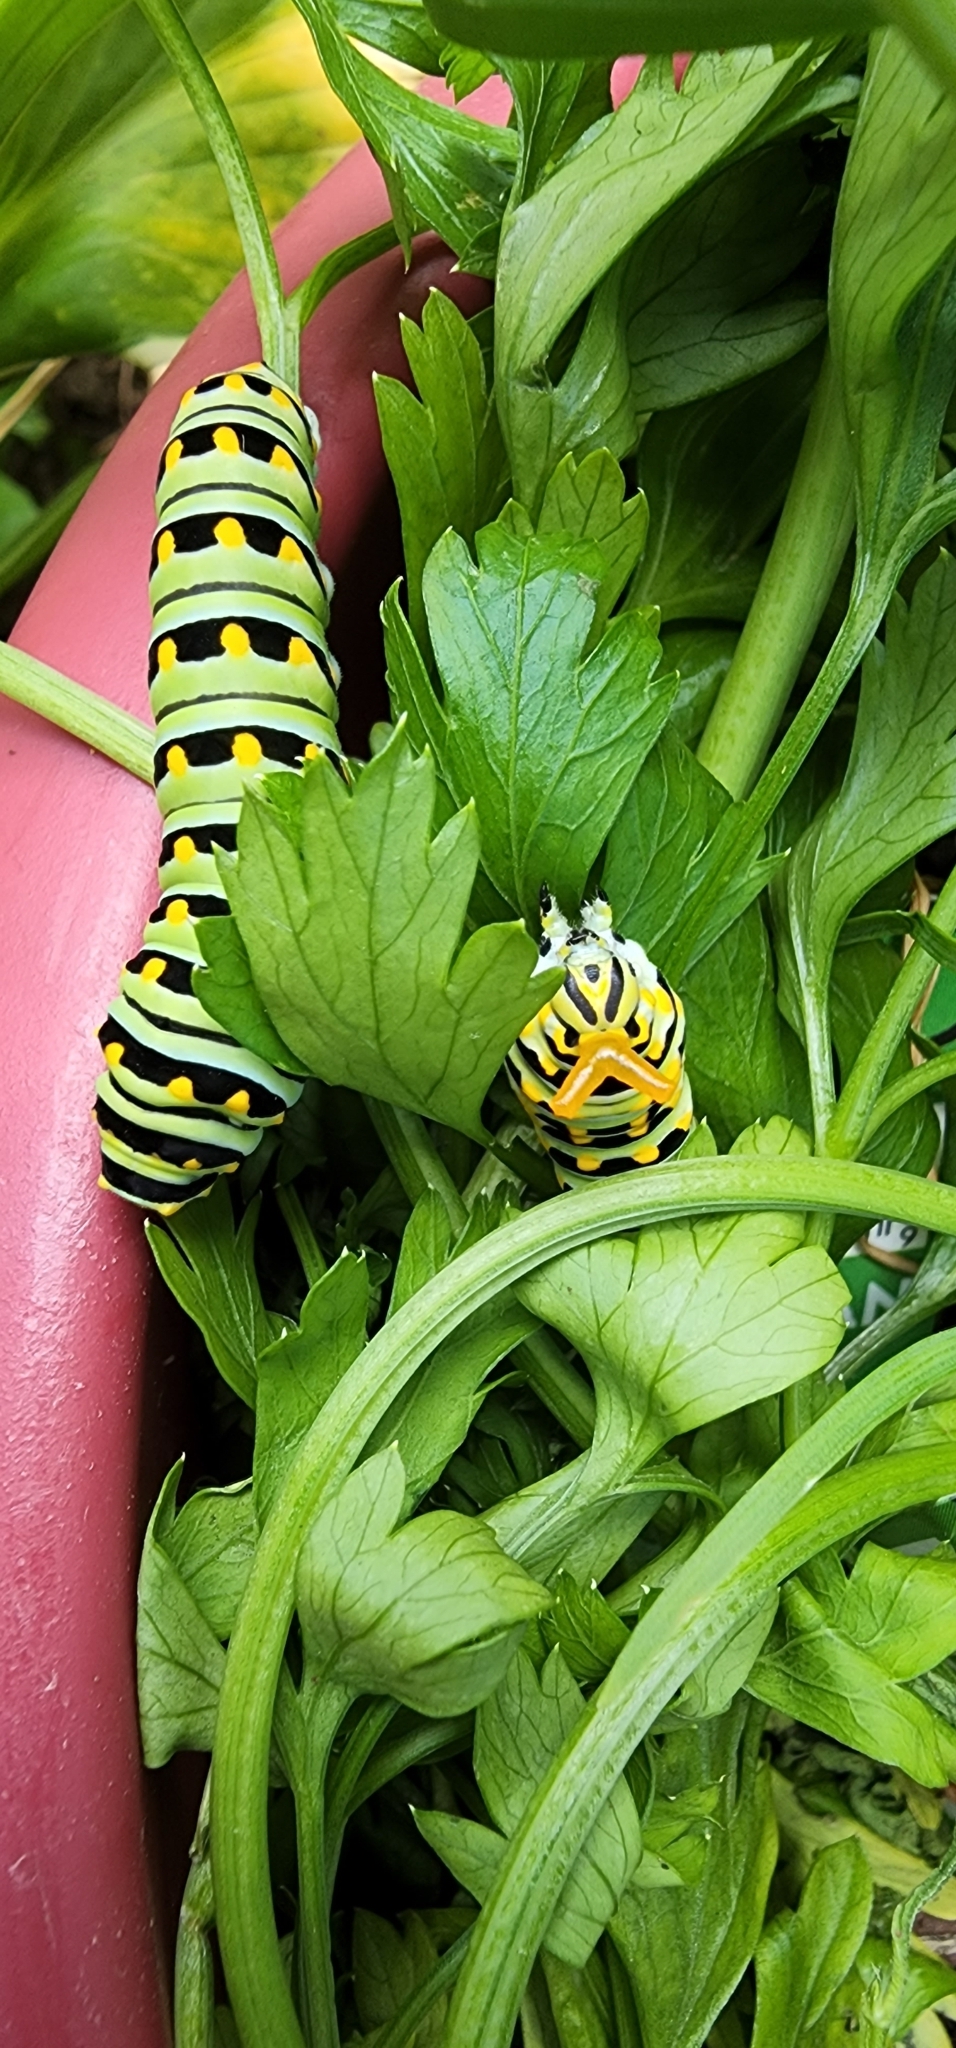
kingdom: Animalia
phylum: Arthropoda
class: Insecta
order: Lepidoptera
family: Papilionidae
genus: Papilio
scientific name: Papilio polyxenes
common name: Black swallowtail
